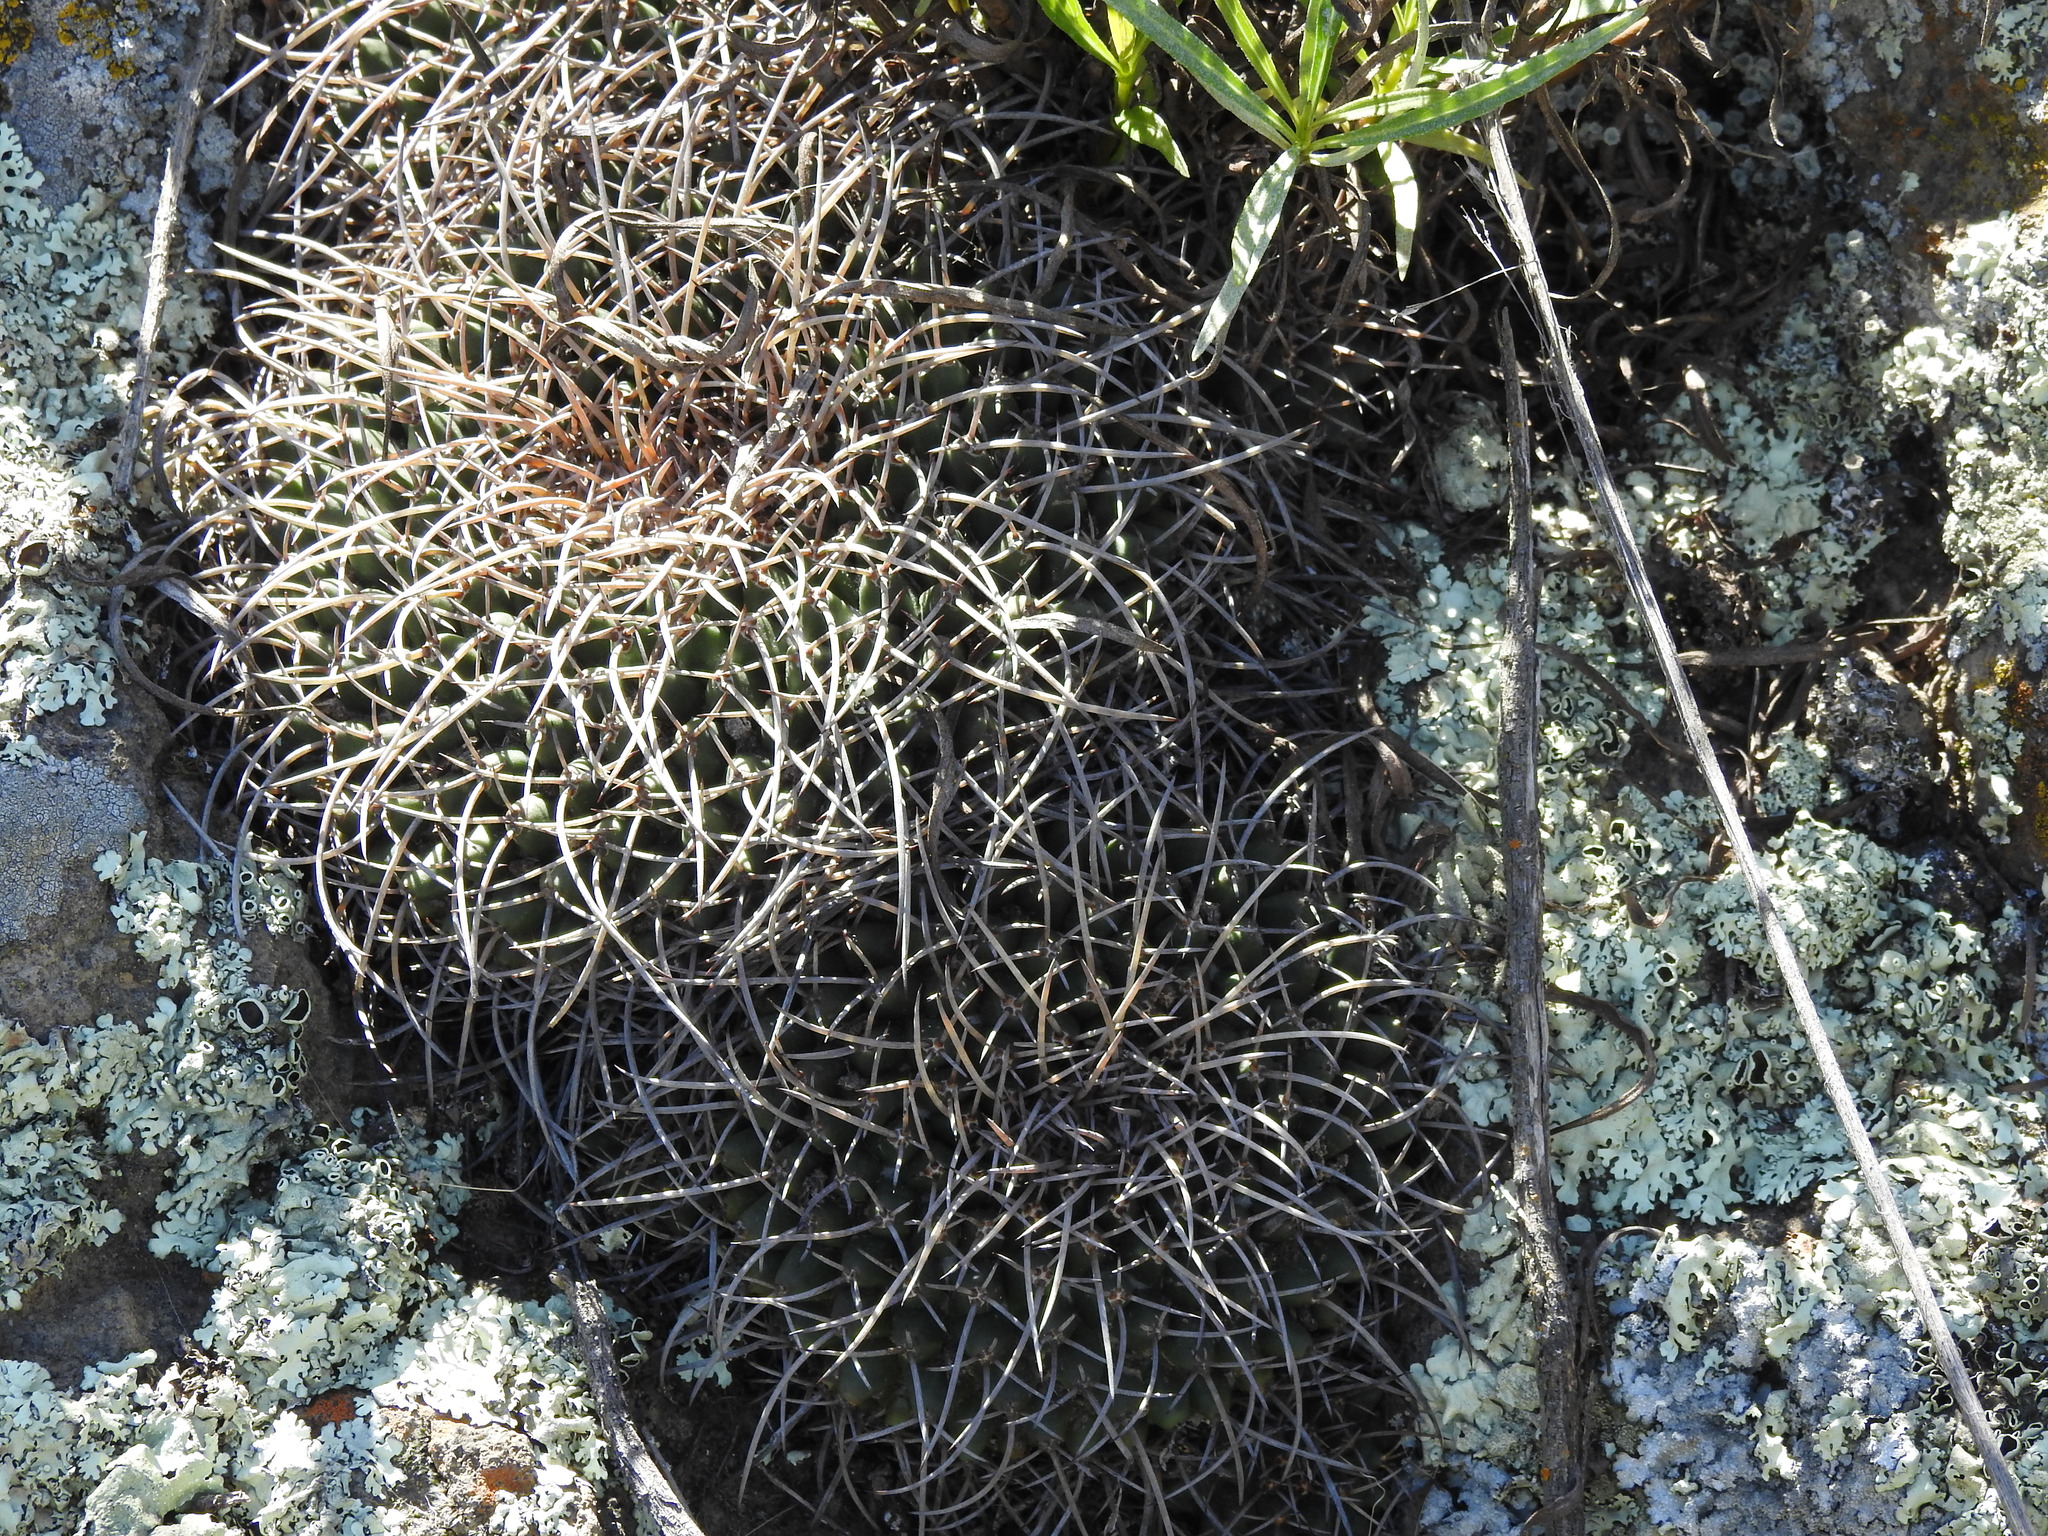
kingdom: Plantae
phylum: Tracheophyta
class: Magnoliopsida
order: Caryophyllales
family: Cactaceae
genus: Mammillaria
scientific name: Mammillaria magnimamma
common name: Mexican pincushion
